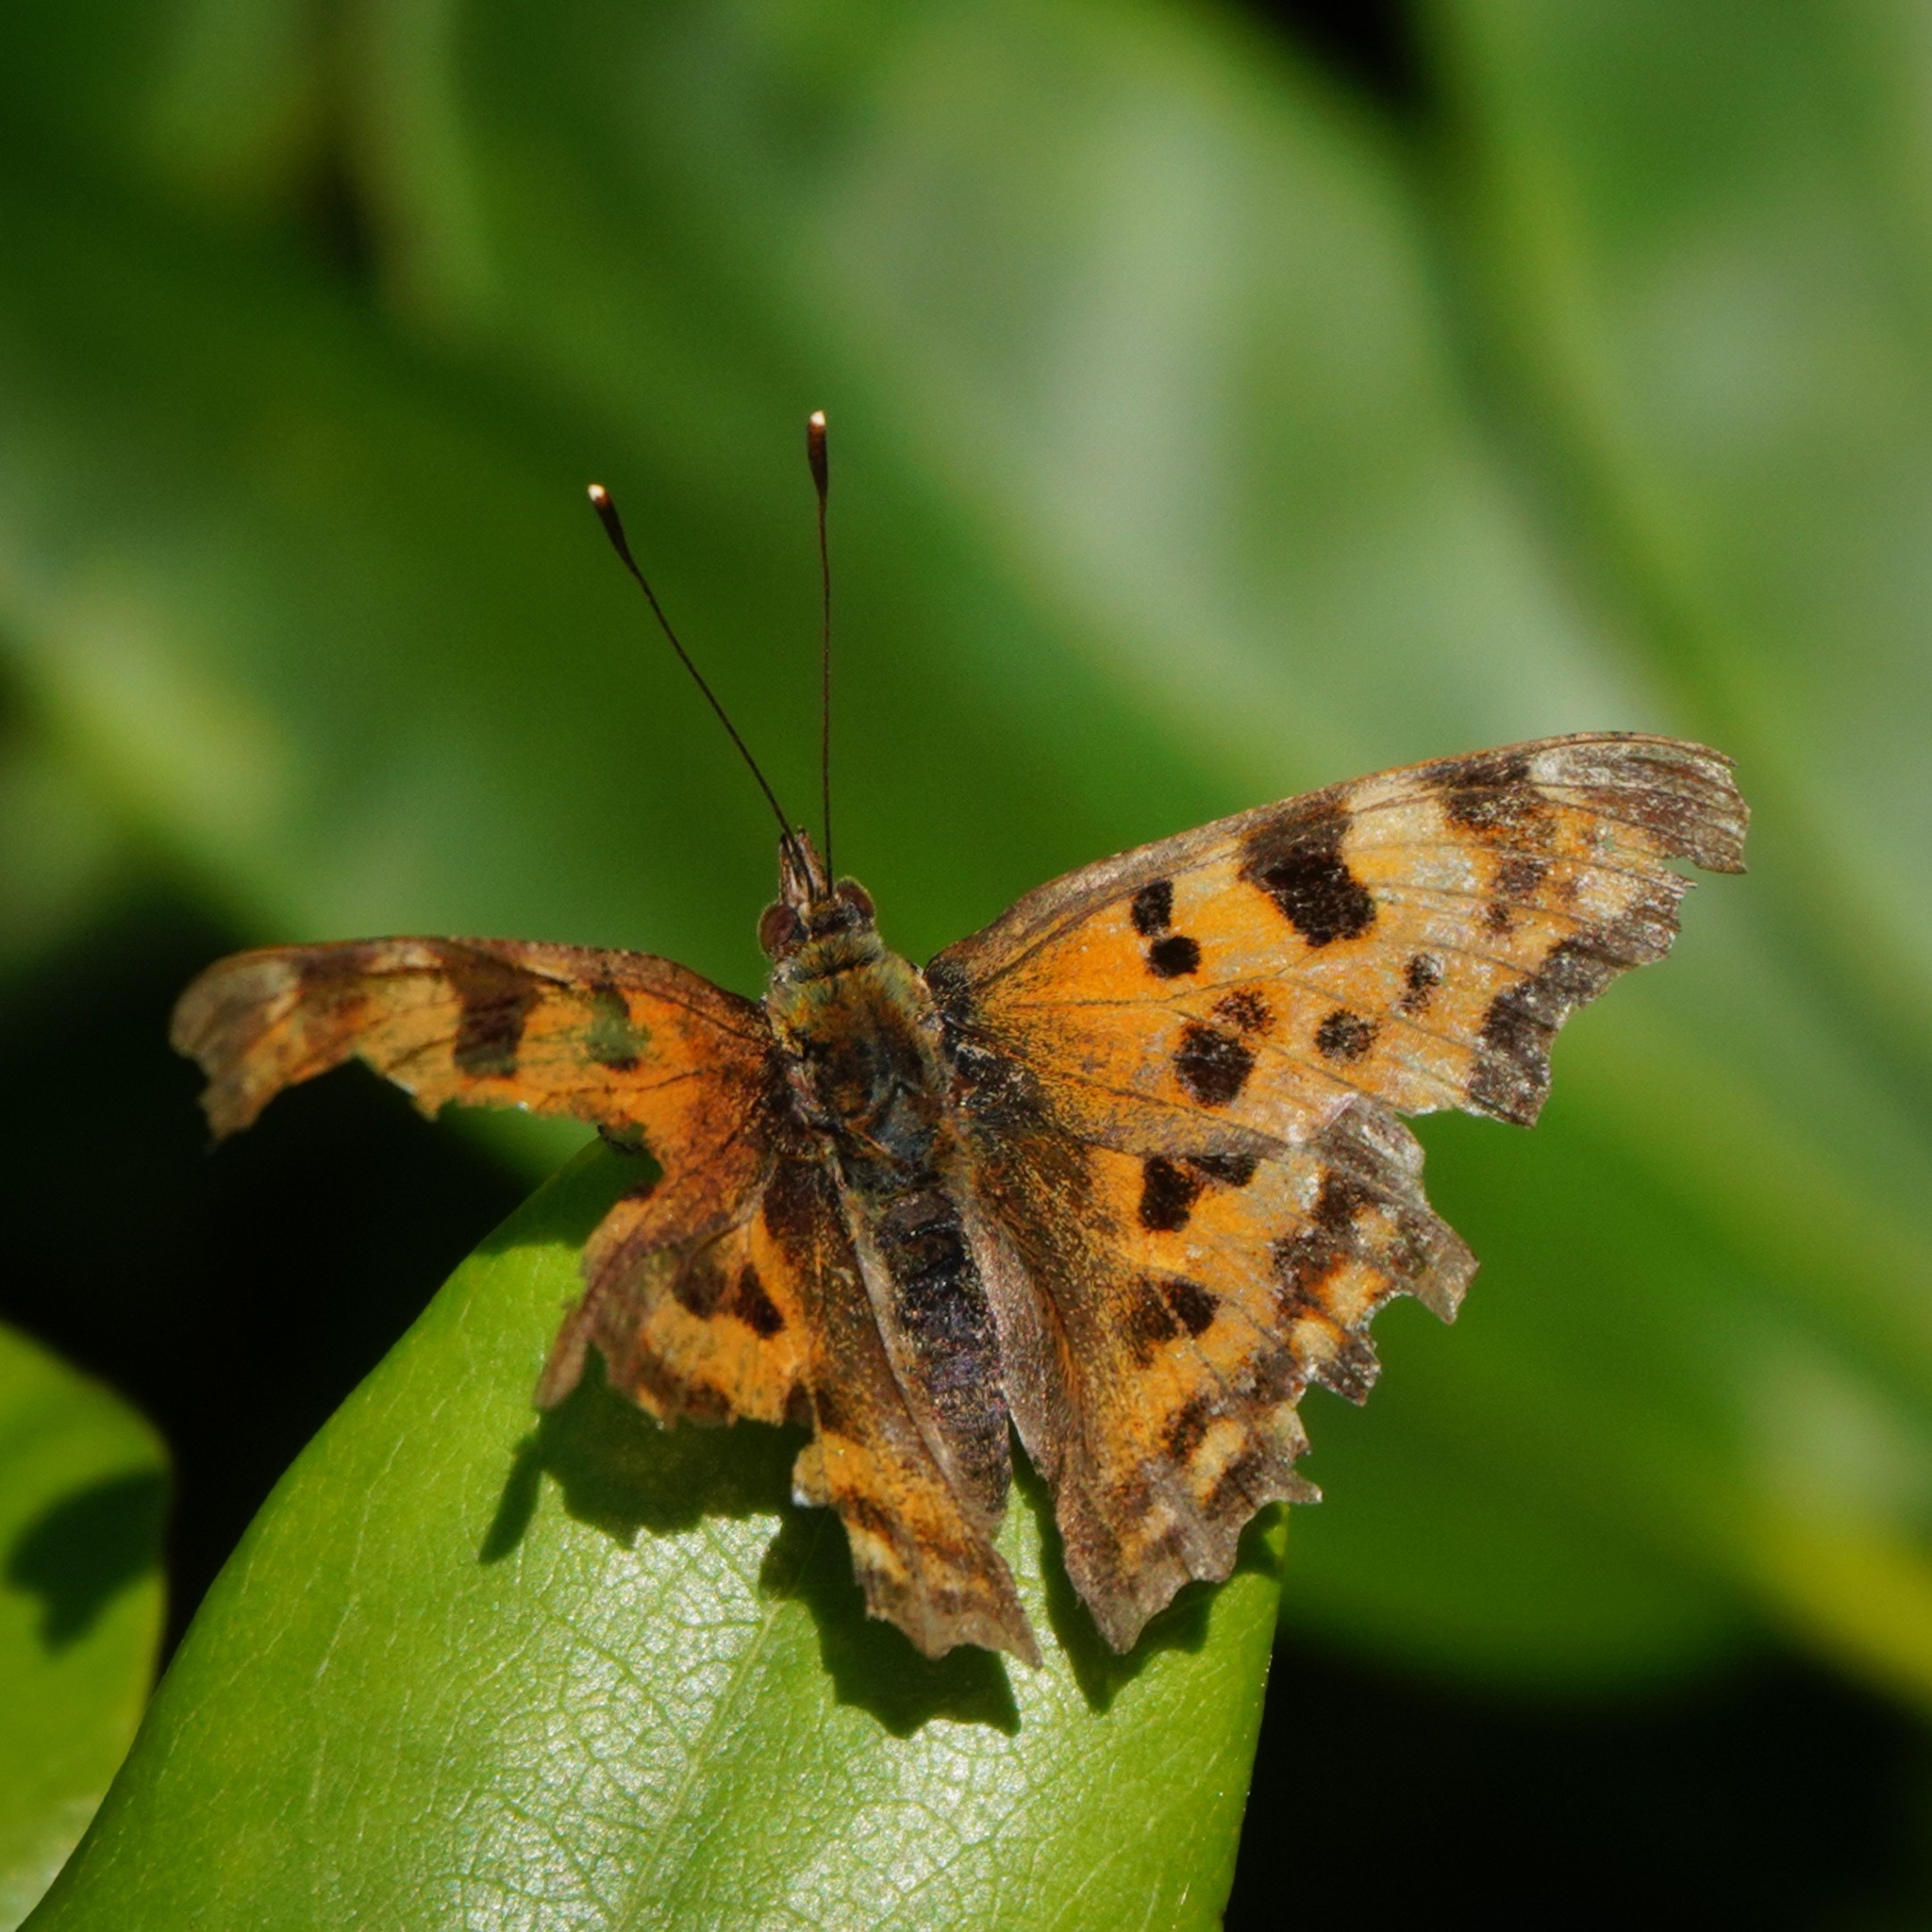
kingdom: Animalia
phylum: Arthropoda
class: Insecta
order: Lepidoptera
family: Nymphalidae
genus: Polygonia
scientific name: Polygonia c-album
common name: Comma
